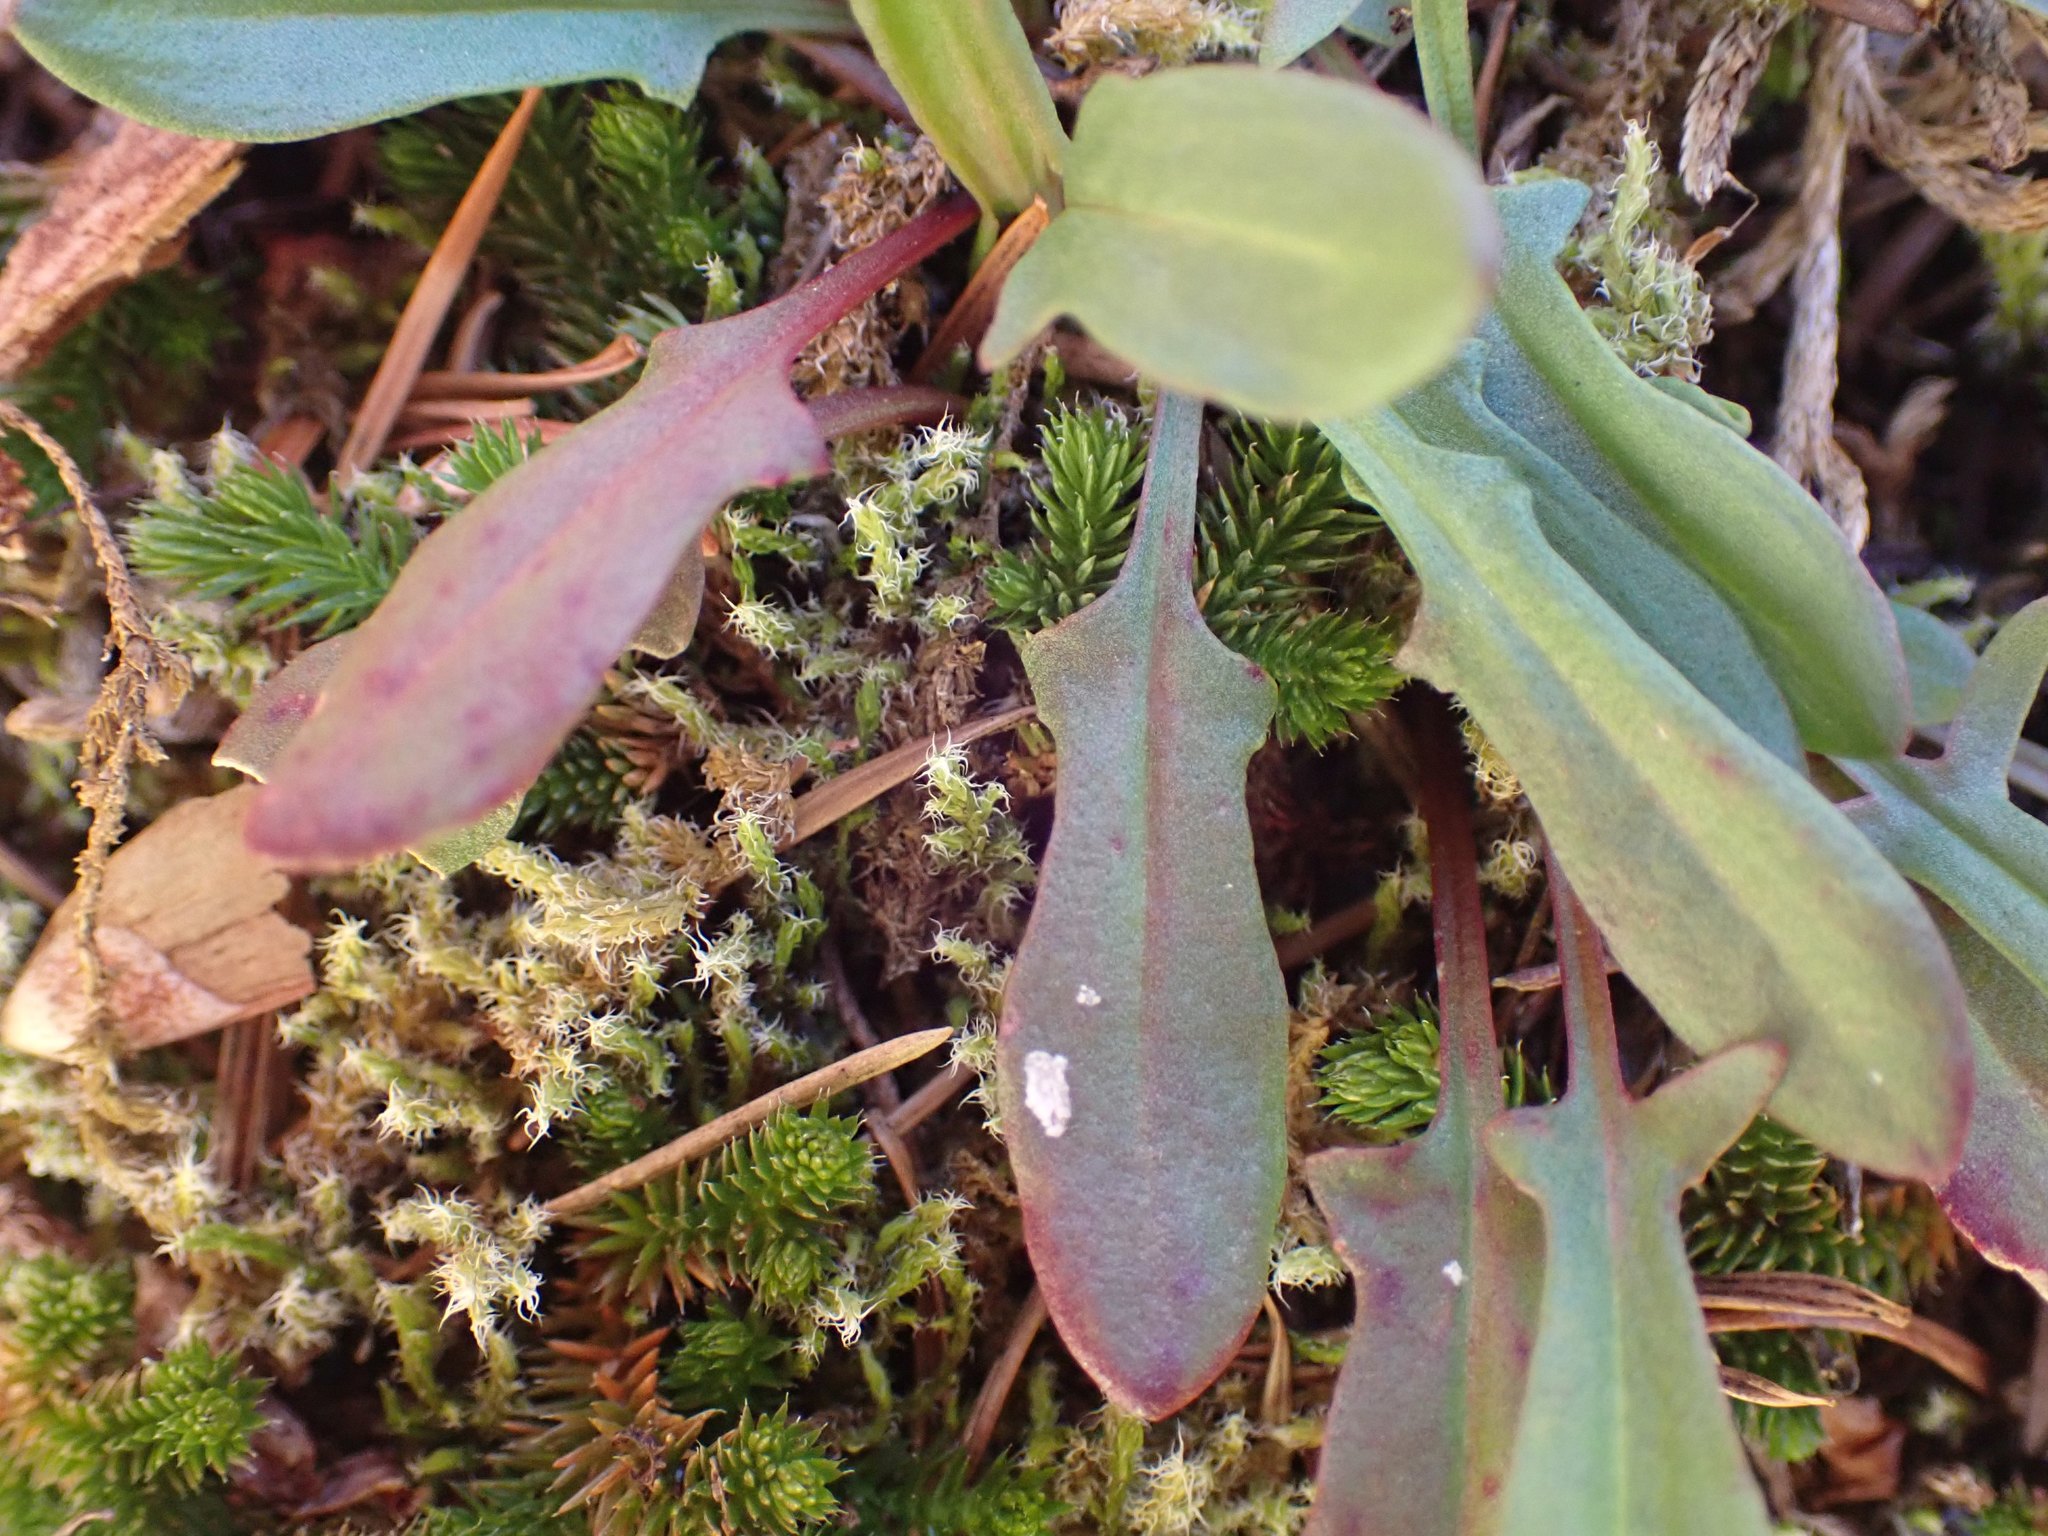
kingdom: Plantae
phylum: Tracheophyta
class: Magnoliopsida
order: Caryophyllales
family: Polygonaceae
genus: Rumex
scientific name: Rumex acetosella
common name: Common sheep sorrel
